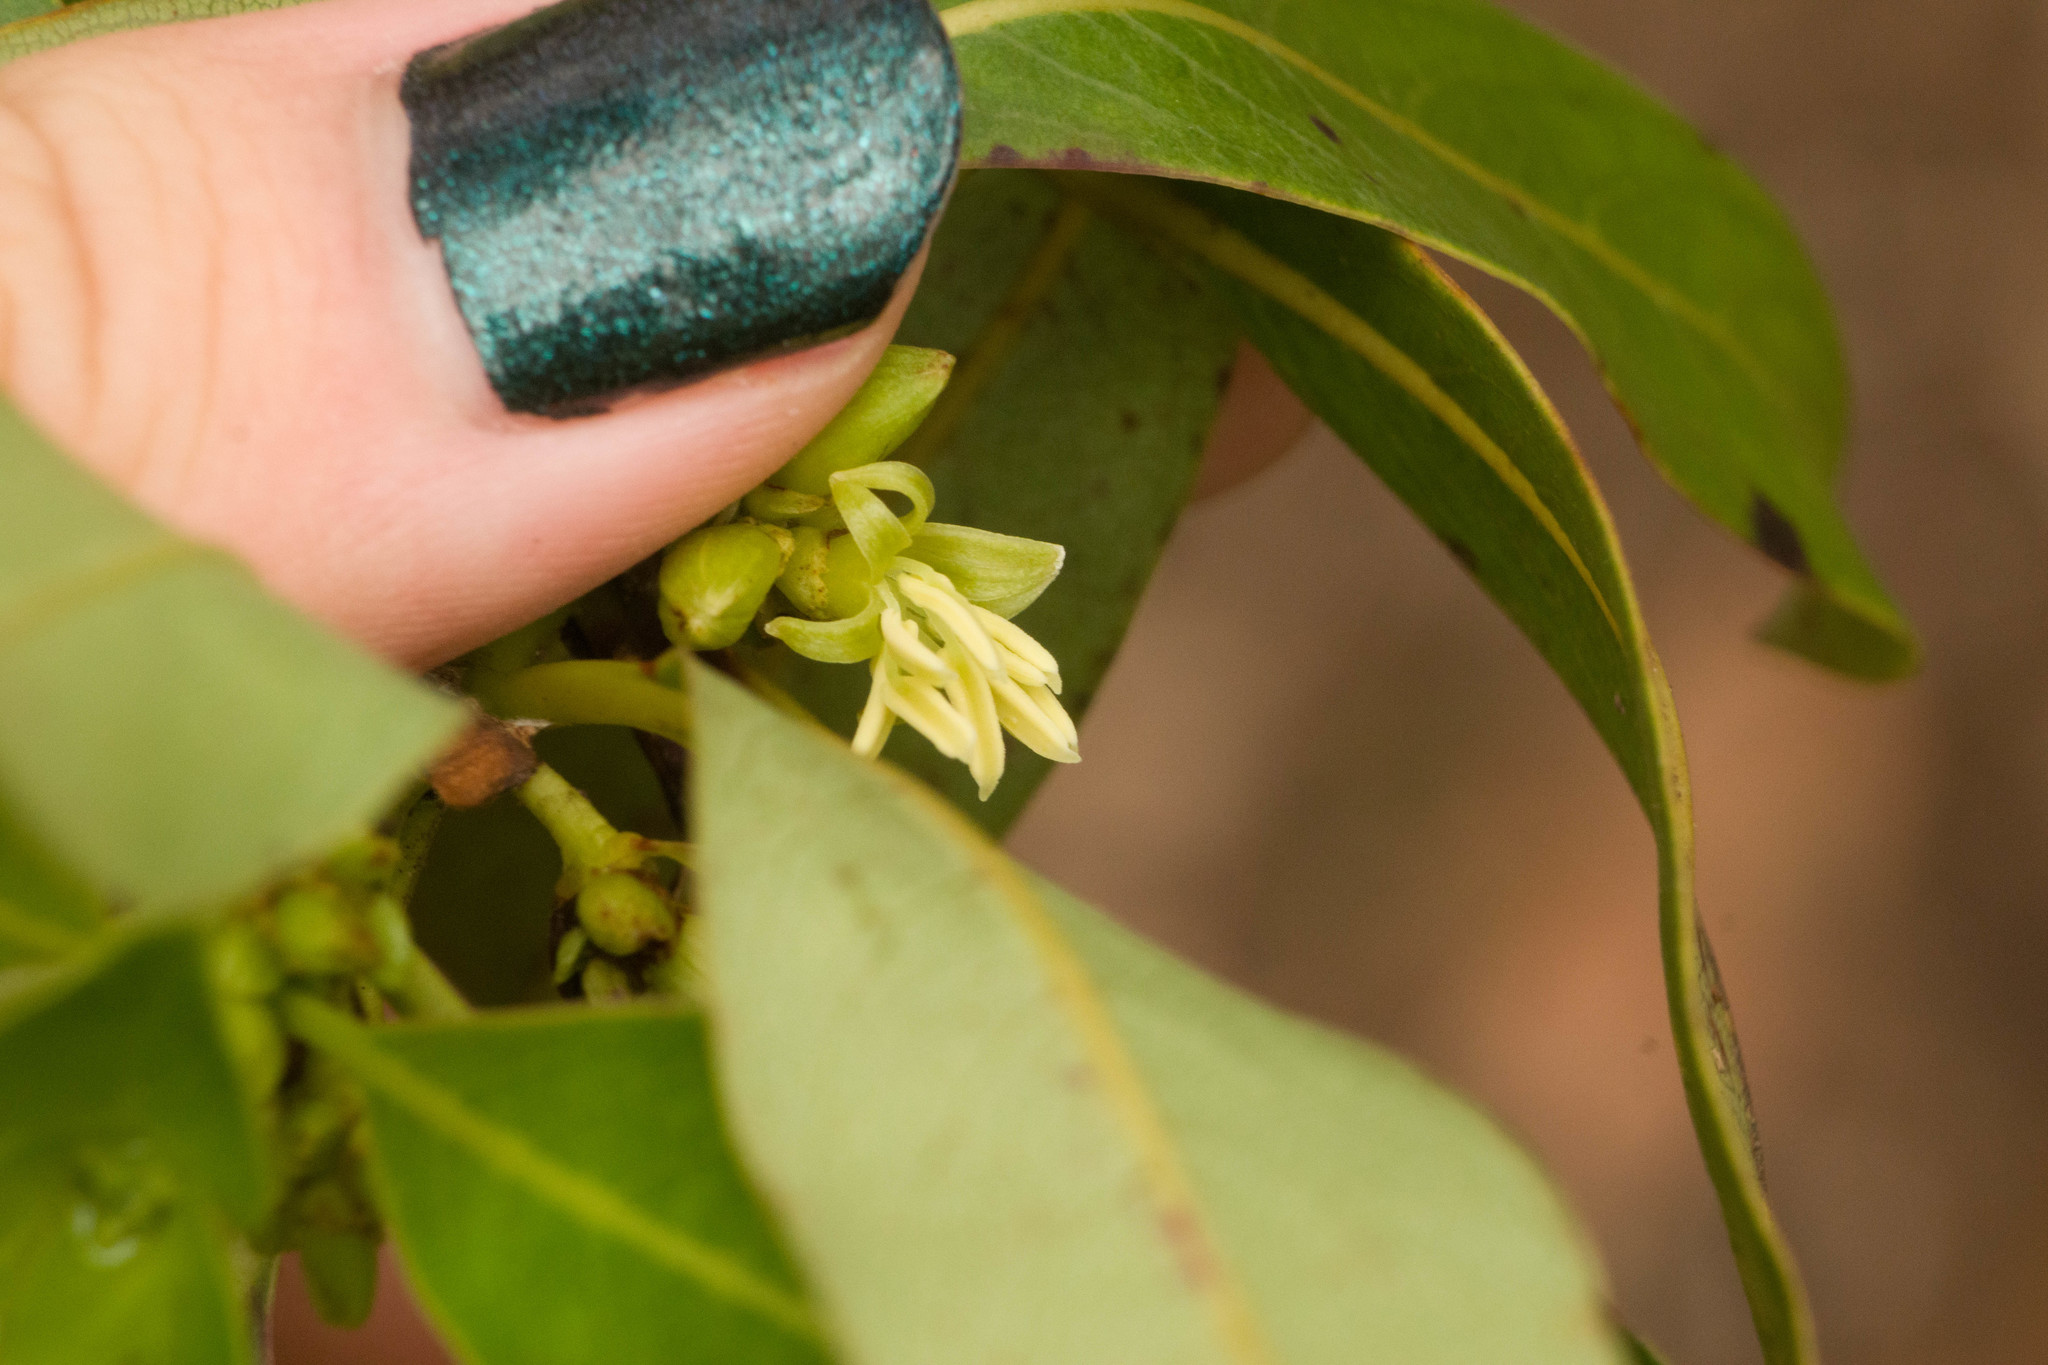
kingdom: Plantae
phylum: Tracheophyta
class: Magnoliopsida
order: Gentianales
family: Rubiaceae
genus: Coprosma
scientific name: Coprosma longifolia
